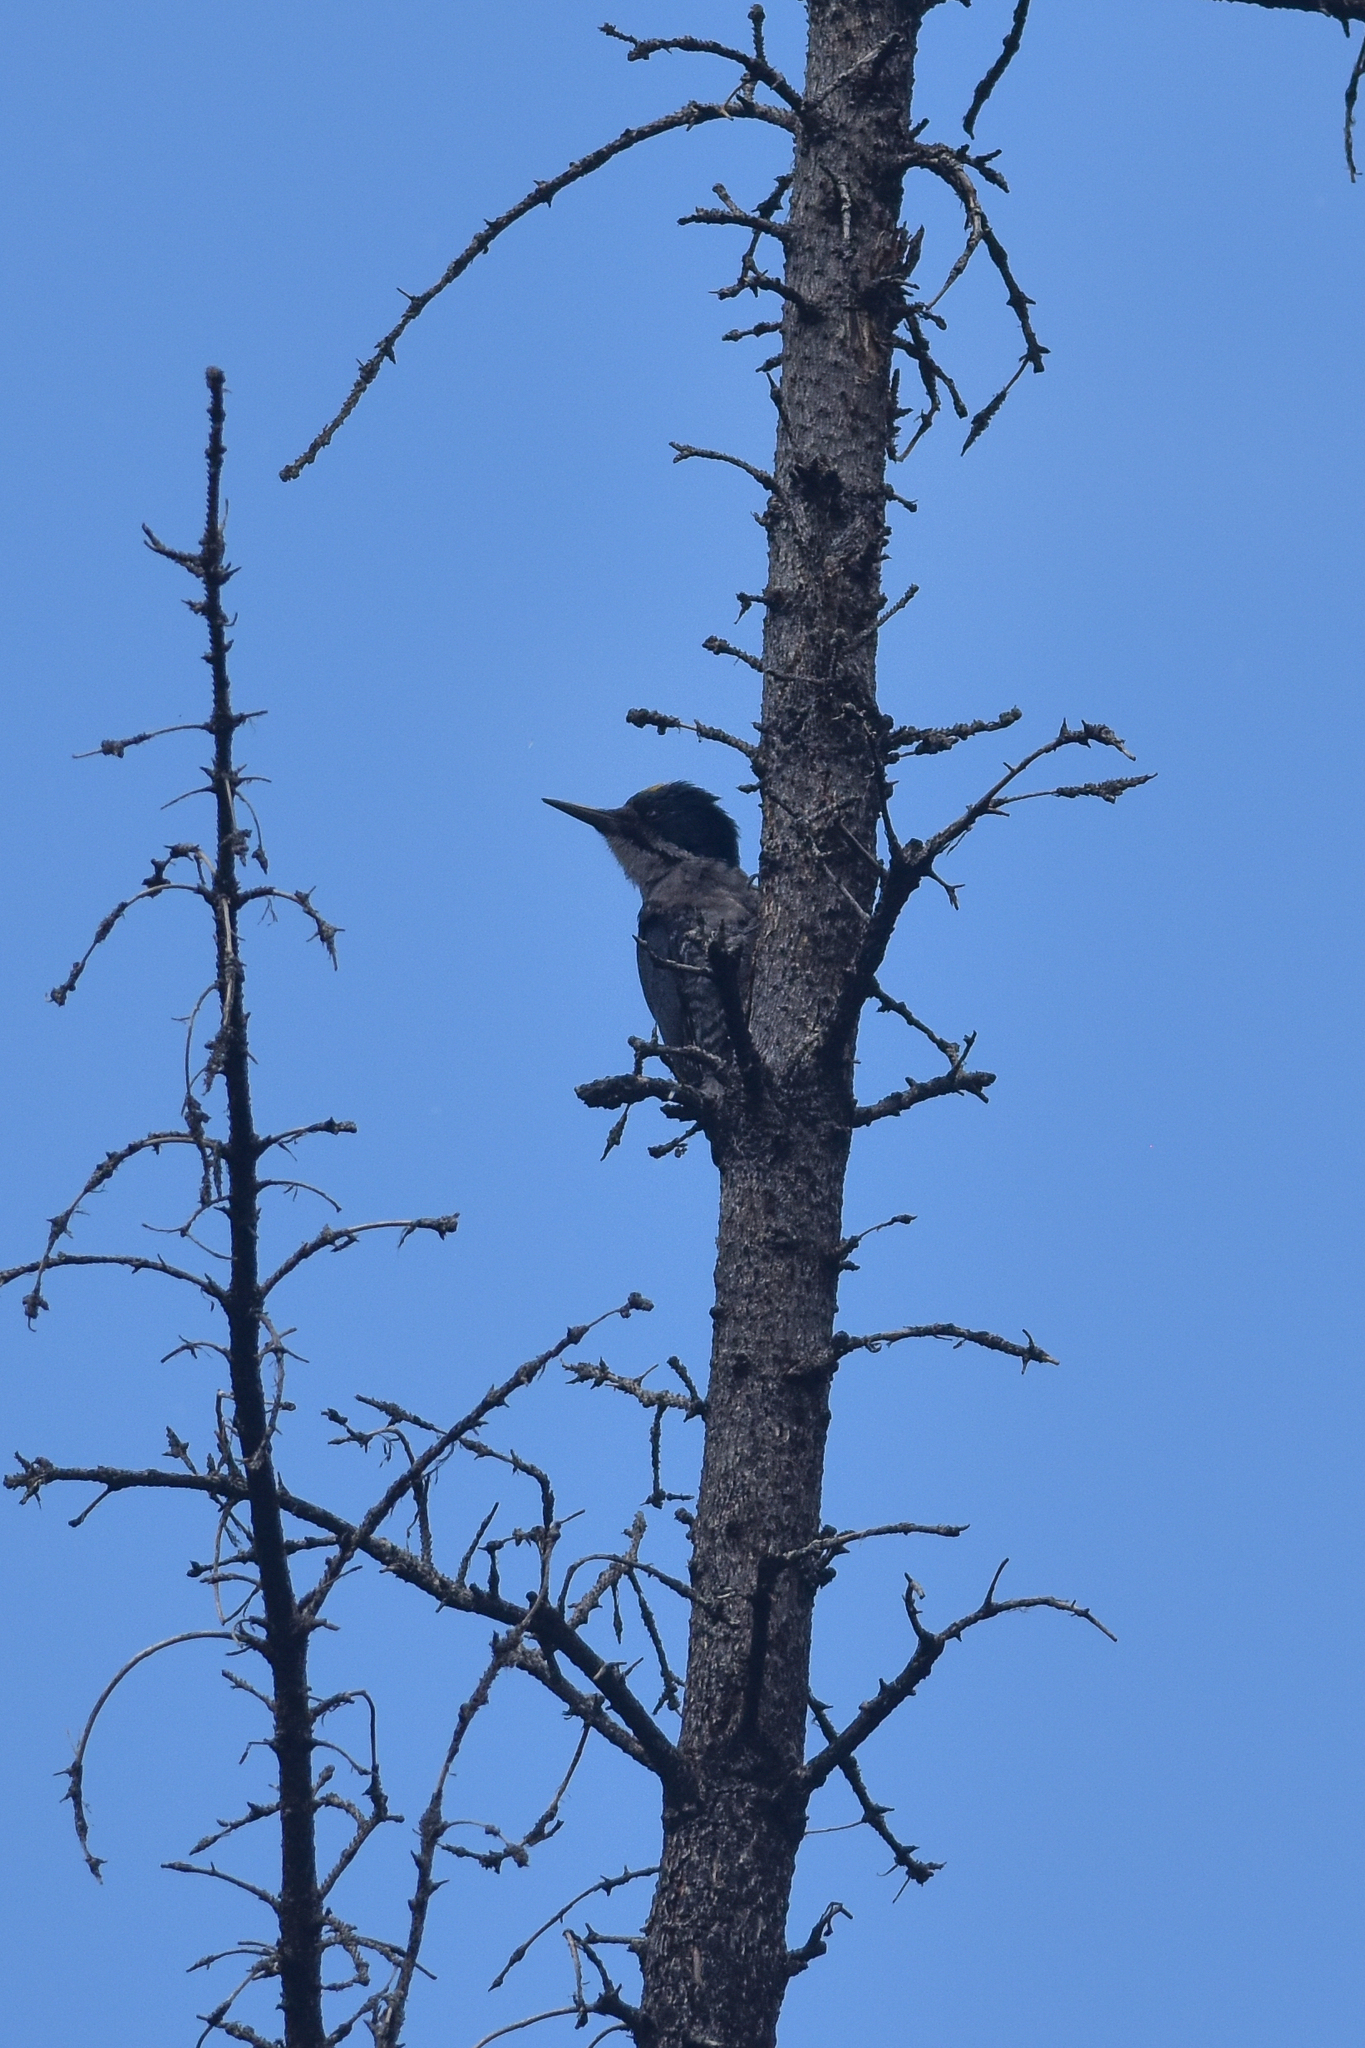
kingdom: Animalia
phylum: Chordata
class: Aves
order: Piciformes
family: Picidae
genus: Picoides
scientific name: Picoides arcticus
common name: Black-backed woodpecker
